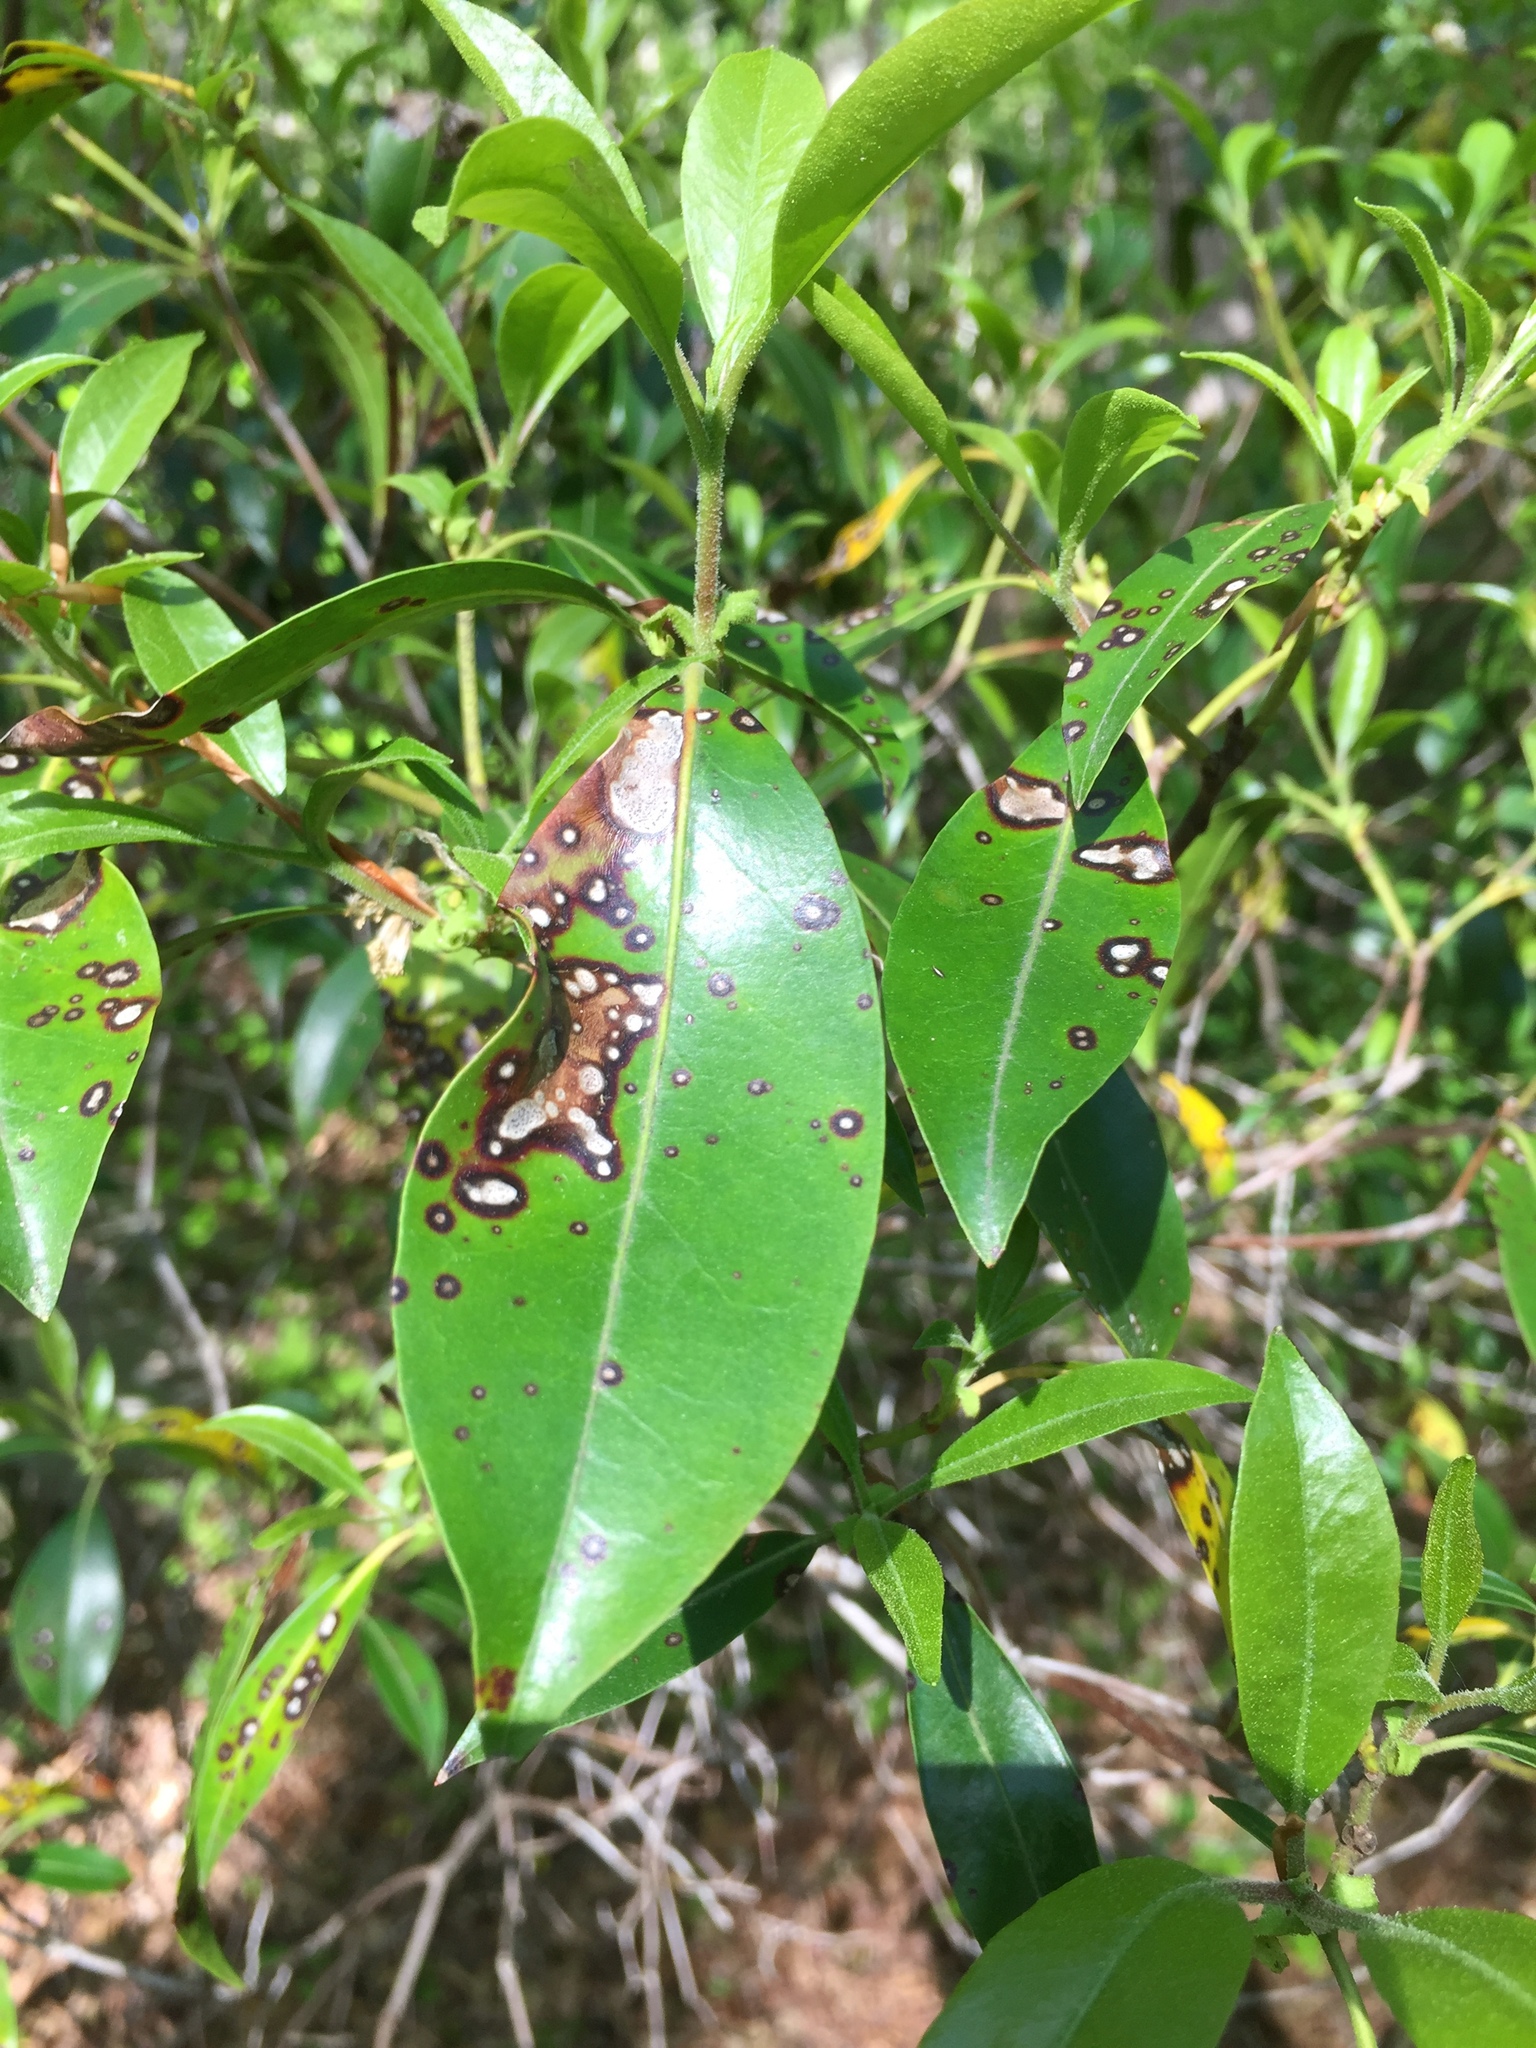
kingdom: Fungi
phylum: Ascomycota
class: Dothideomycetes
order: Mycosphaerellales
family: Mycosphaerellaceae
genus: Mycosphaerella
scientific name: Mycosphaerella colorata
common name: Mountain laurel leaf spot
